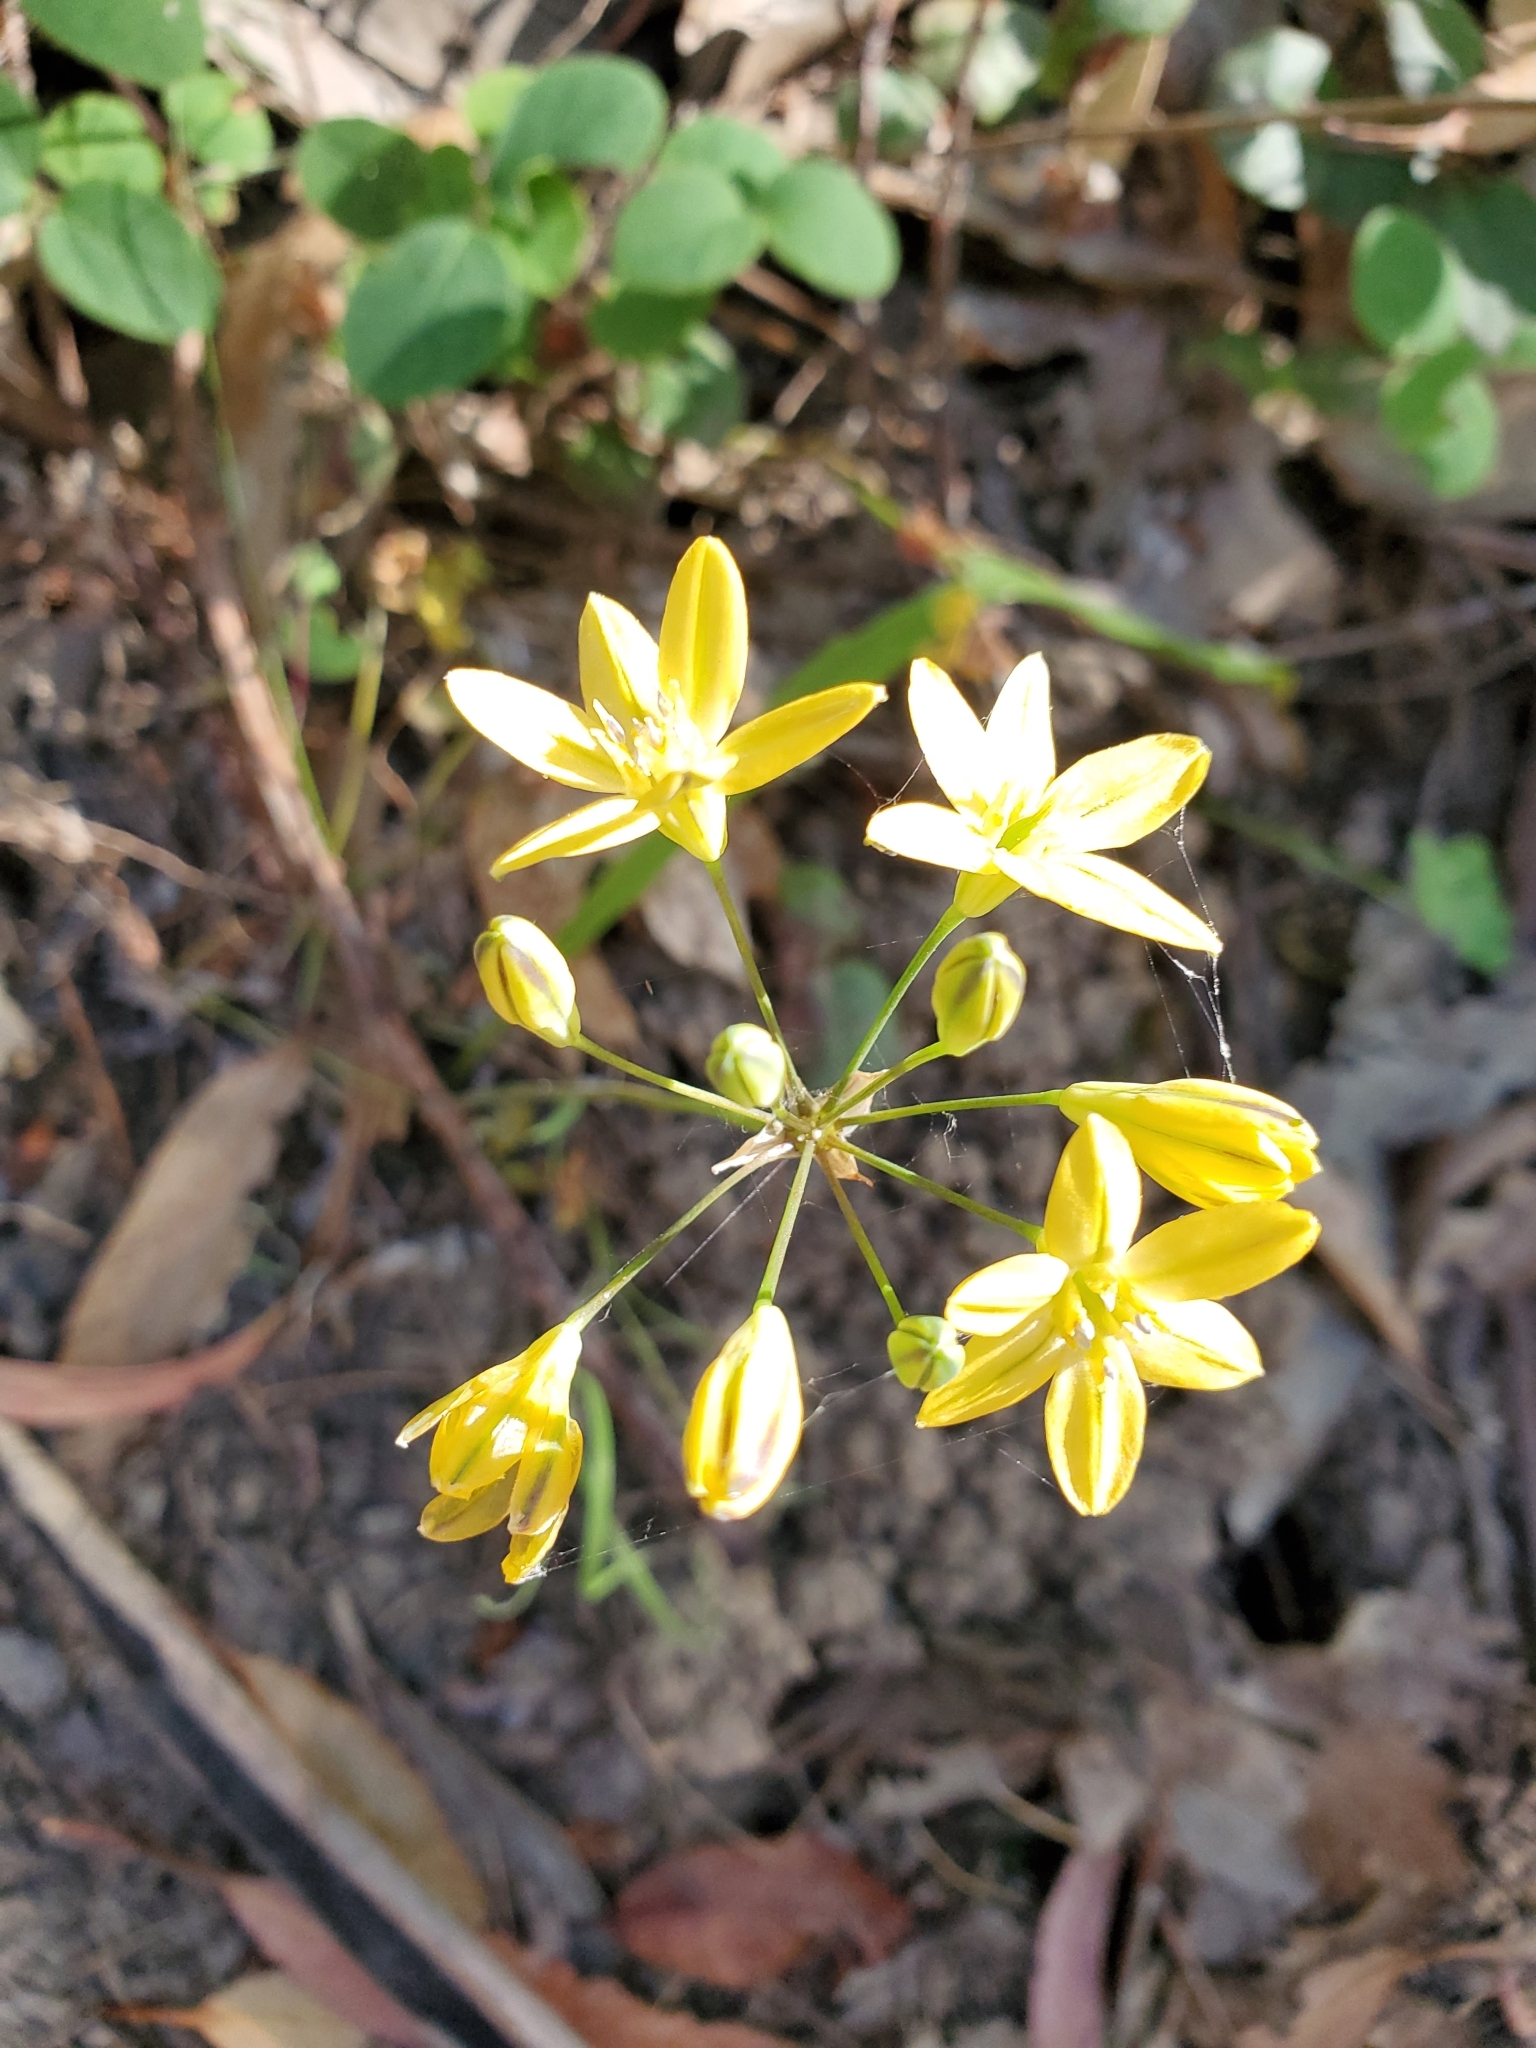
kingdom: Plantae
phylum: Tracheophyta
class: Liliopsida
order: Asparagales
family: Asparagaceae
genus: Triteleia
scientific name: Triteleia ixioides
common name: Yellow-brodiaea
